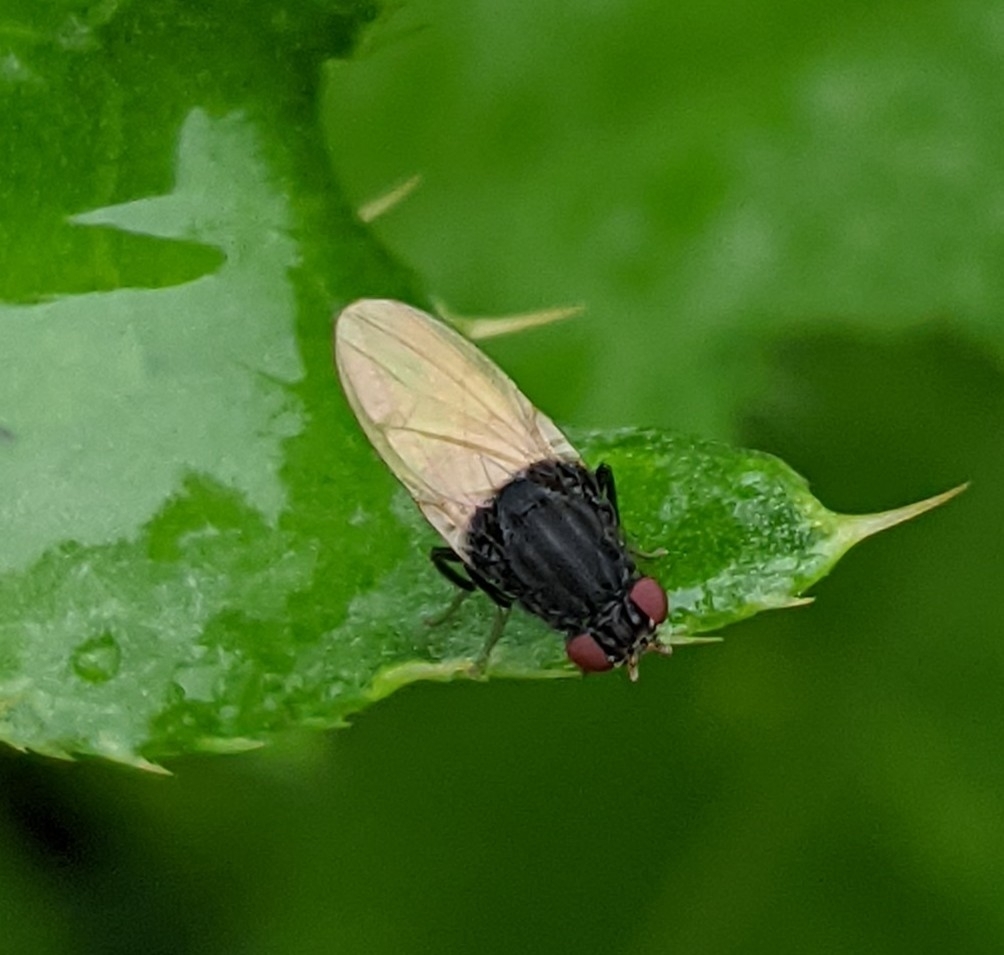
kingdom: Animalia
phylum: Arthropoda
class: Insecta
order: Diptera
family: Lauxaniidae
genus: Minettia
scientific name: Minettia longipennis
